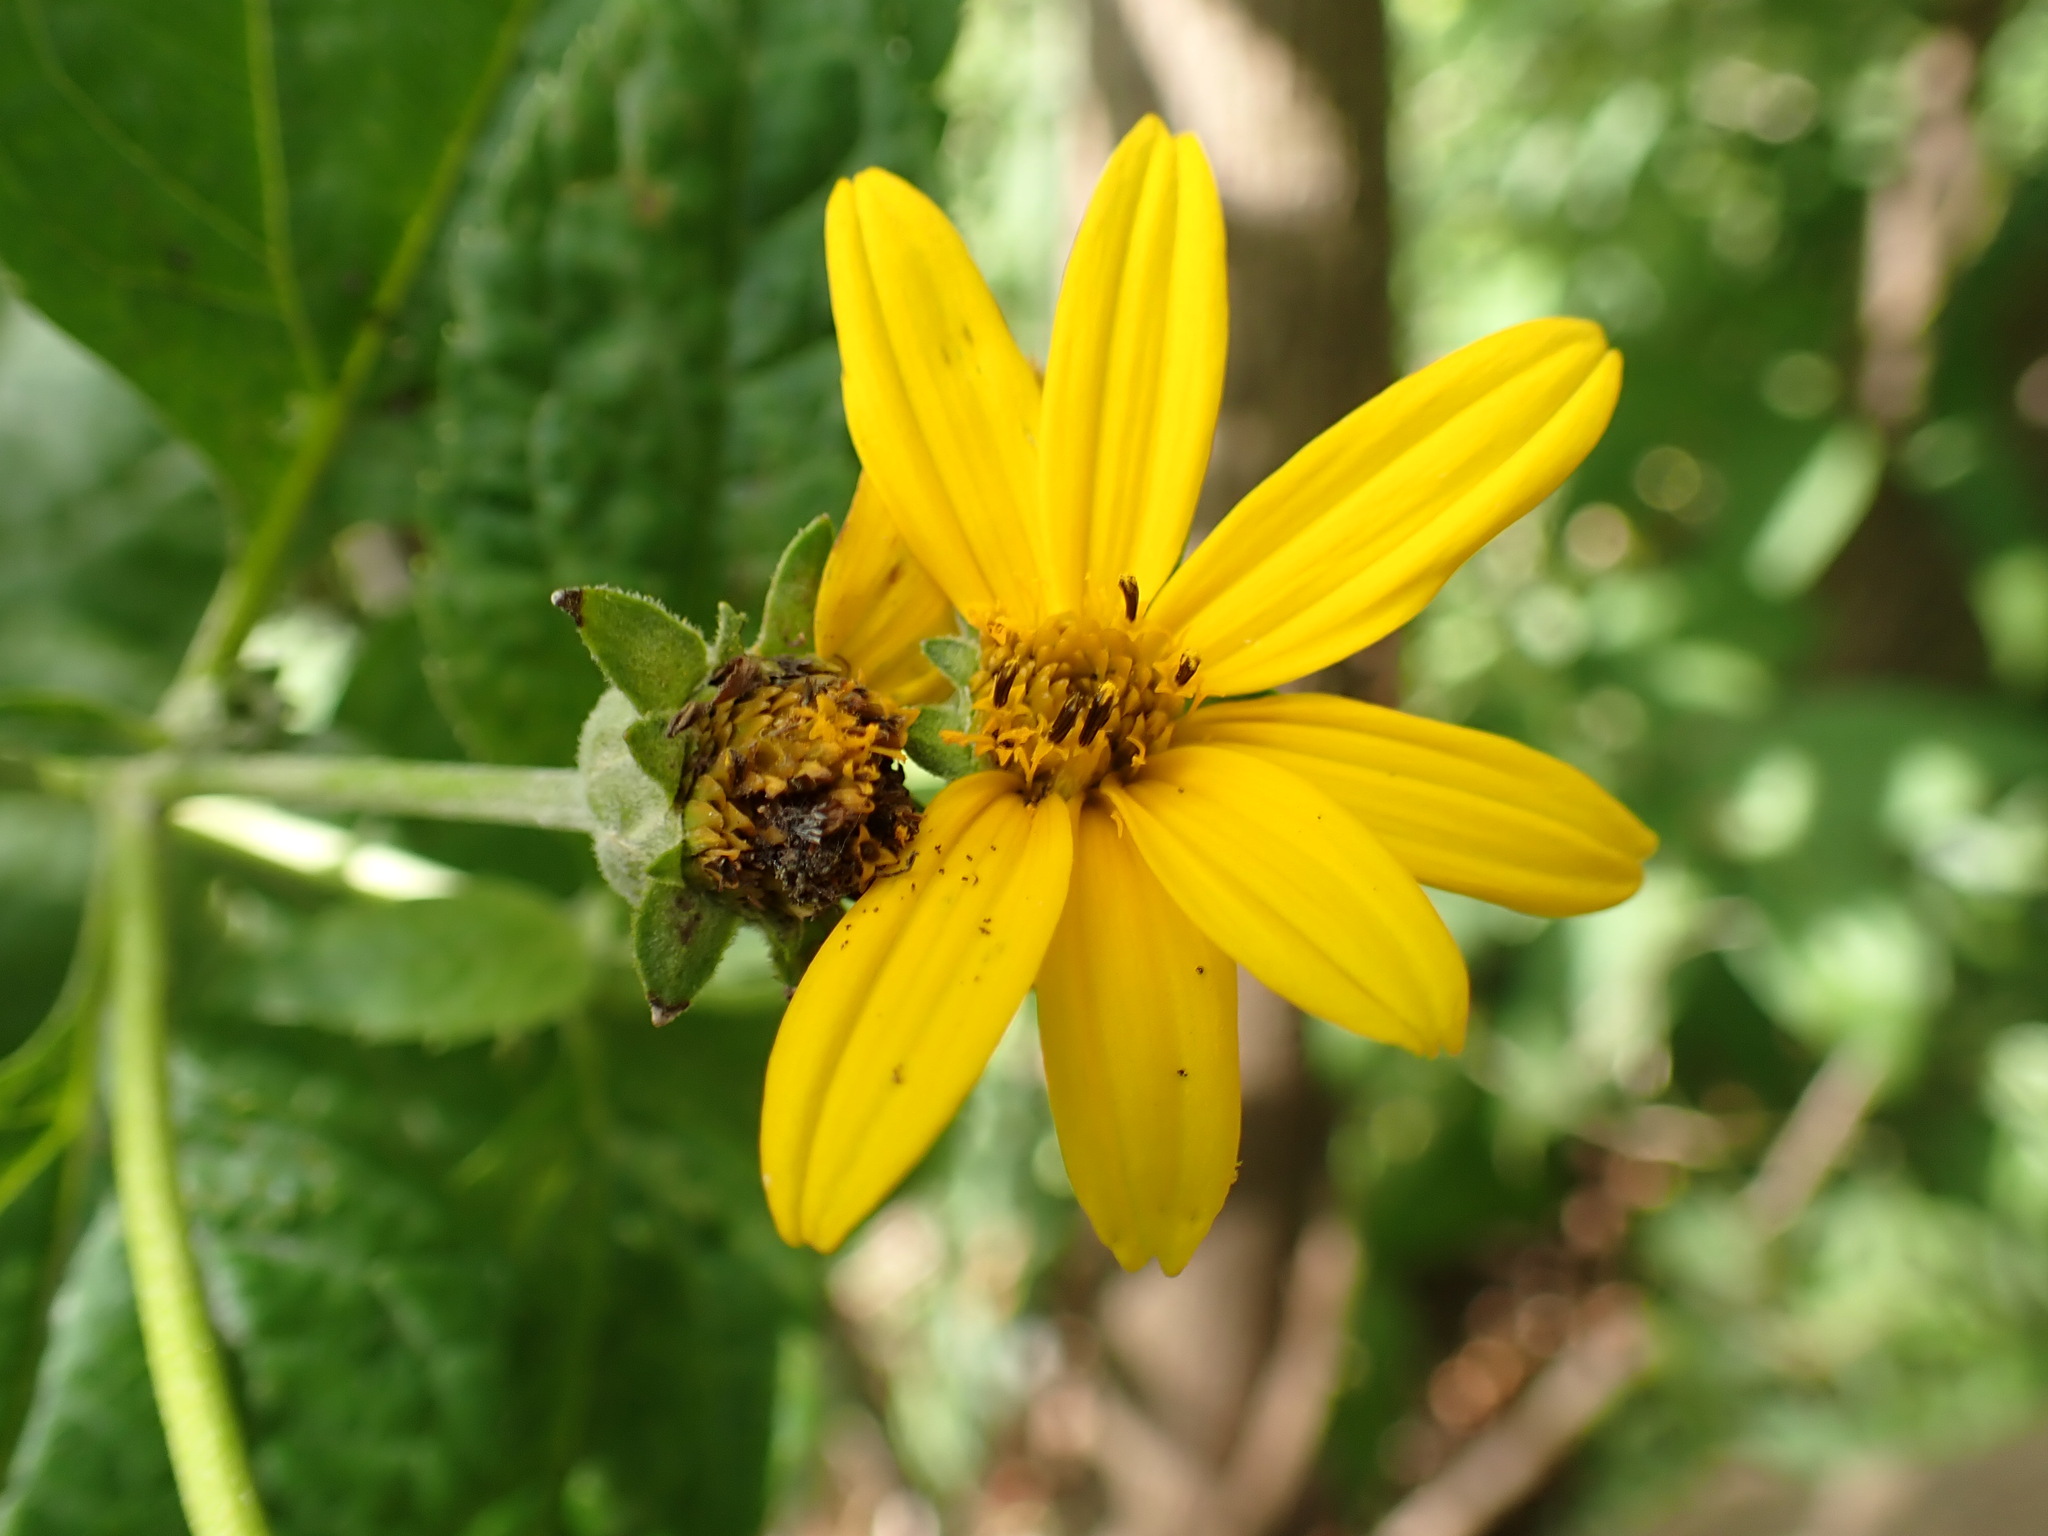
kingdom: Plantae
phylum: Tracheophyta
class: Magnoliopsida
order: Asterales
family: Asteraceae
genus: Heliopsis
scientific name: Heliopsis helianthoides
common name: False sunflower
